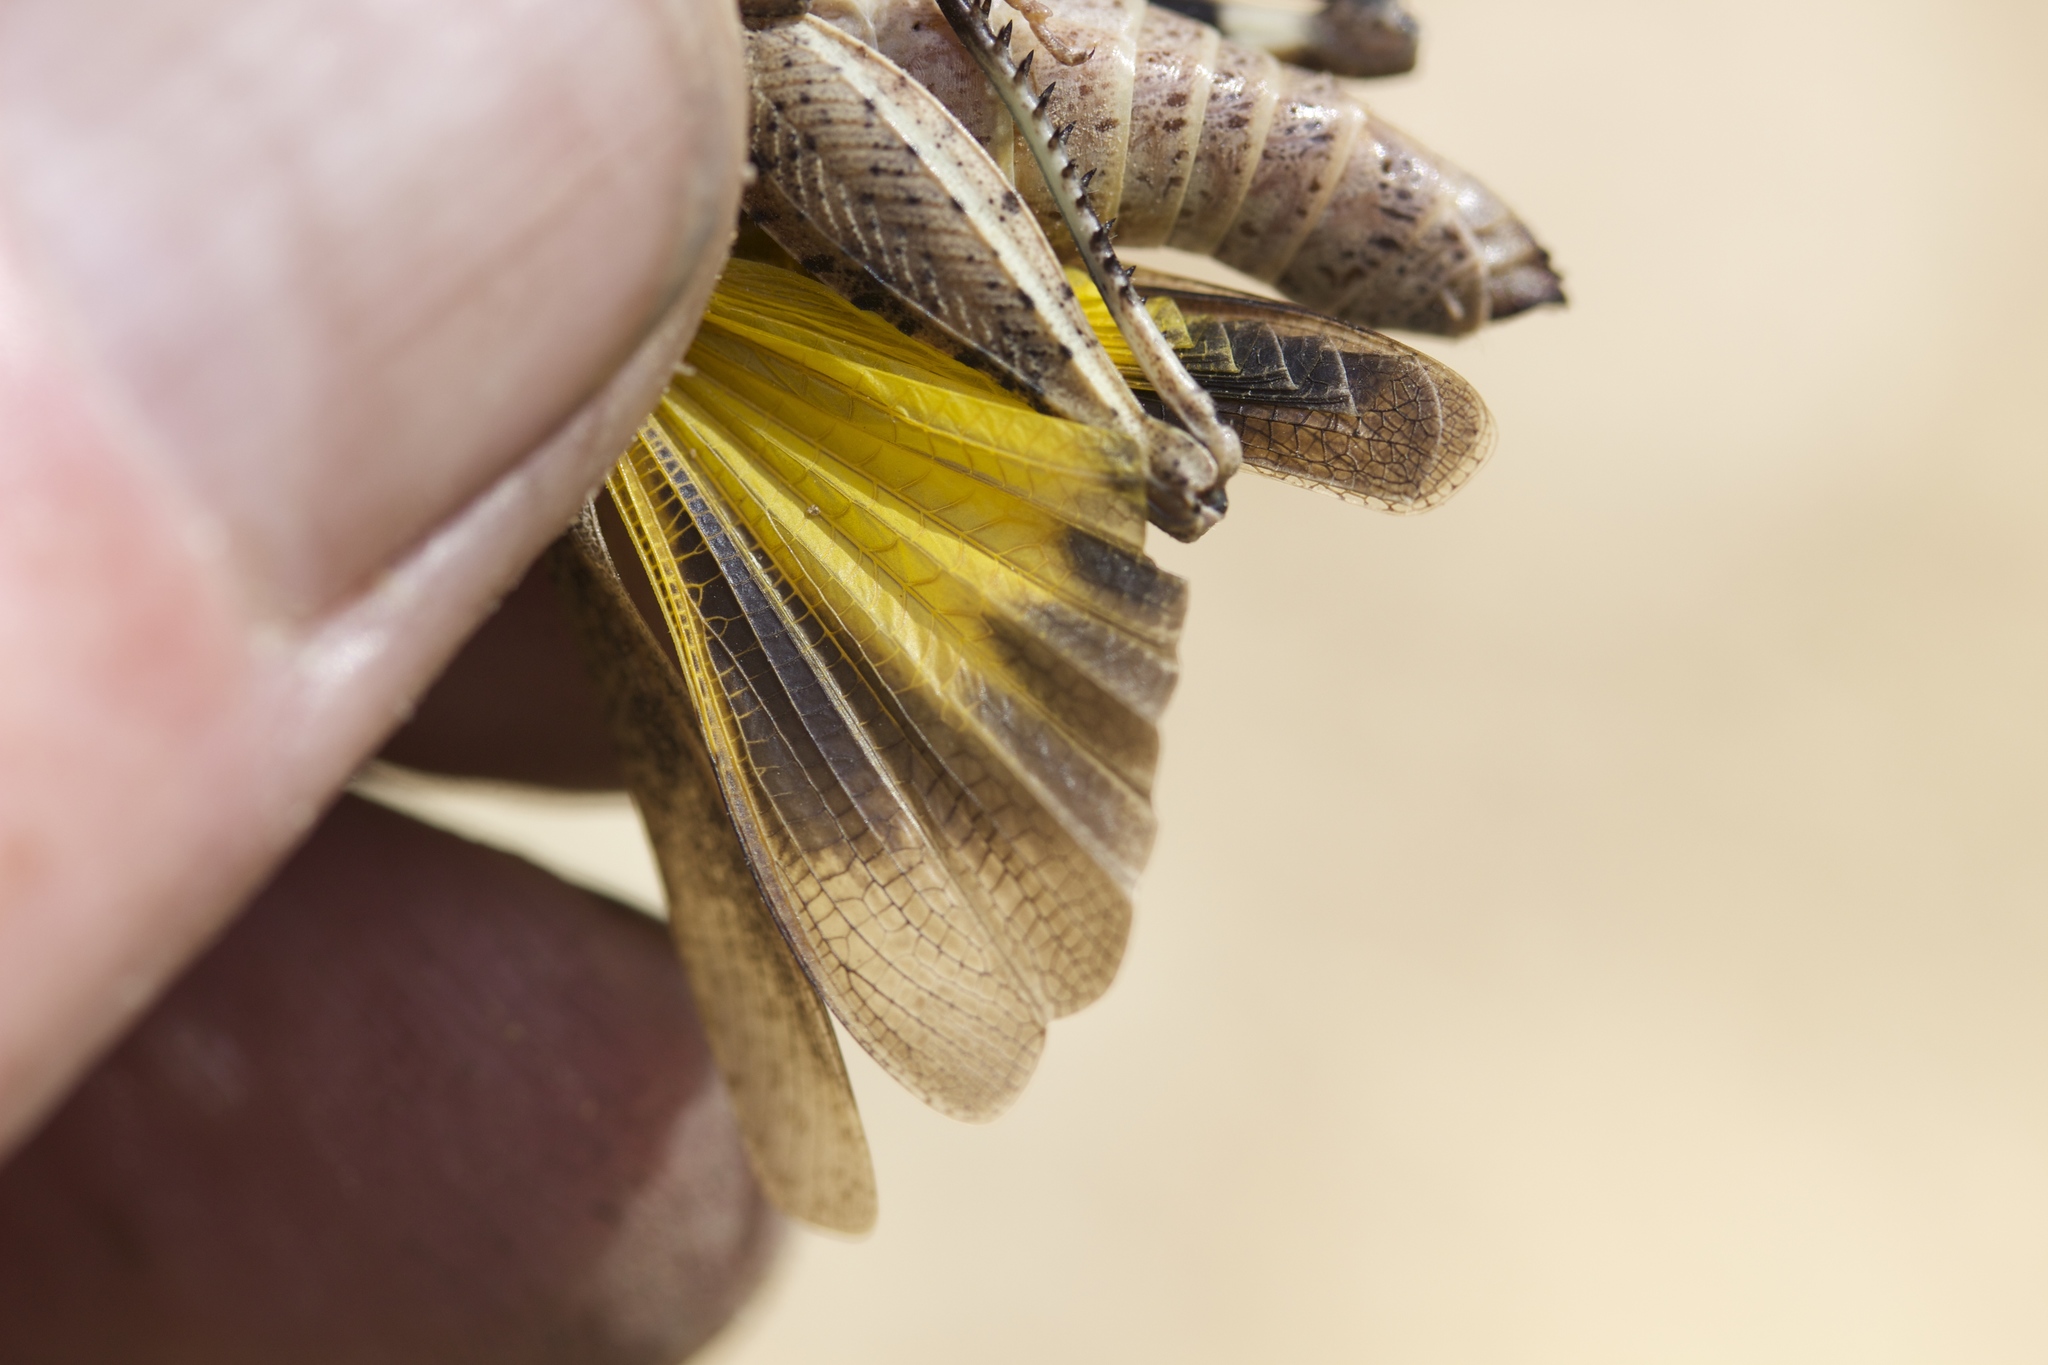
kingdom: Animalia
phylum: Arthropoda
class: Insecta
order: Orthoptera
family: Acrididae
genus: Arphia
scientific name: Arphia behrensi
